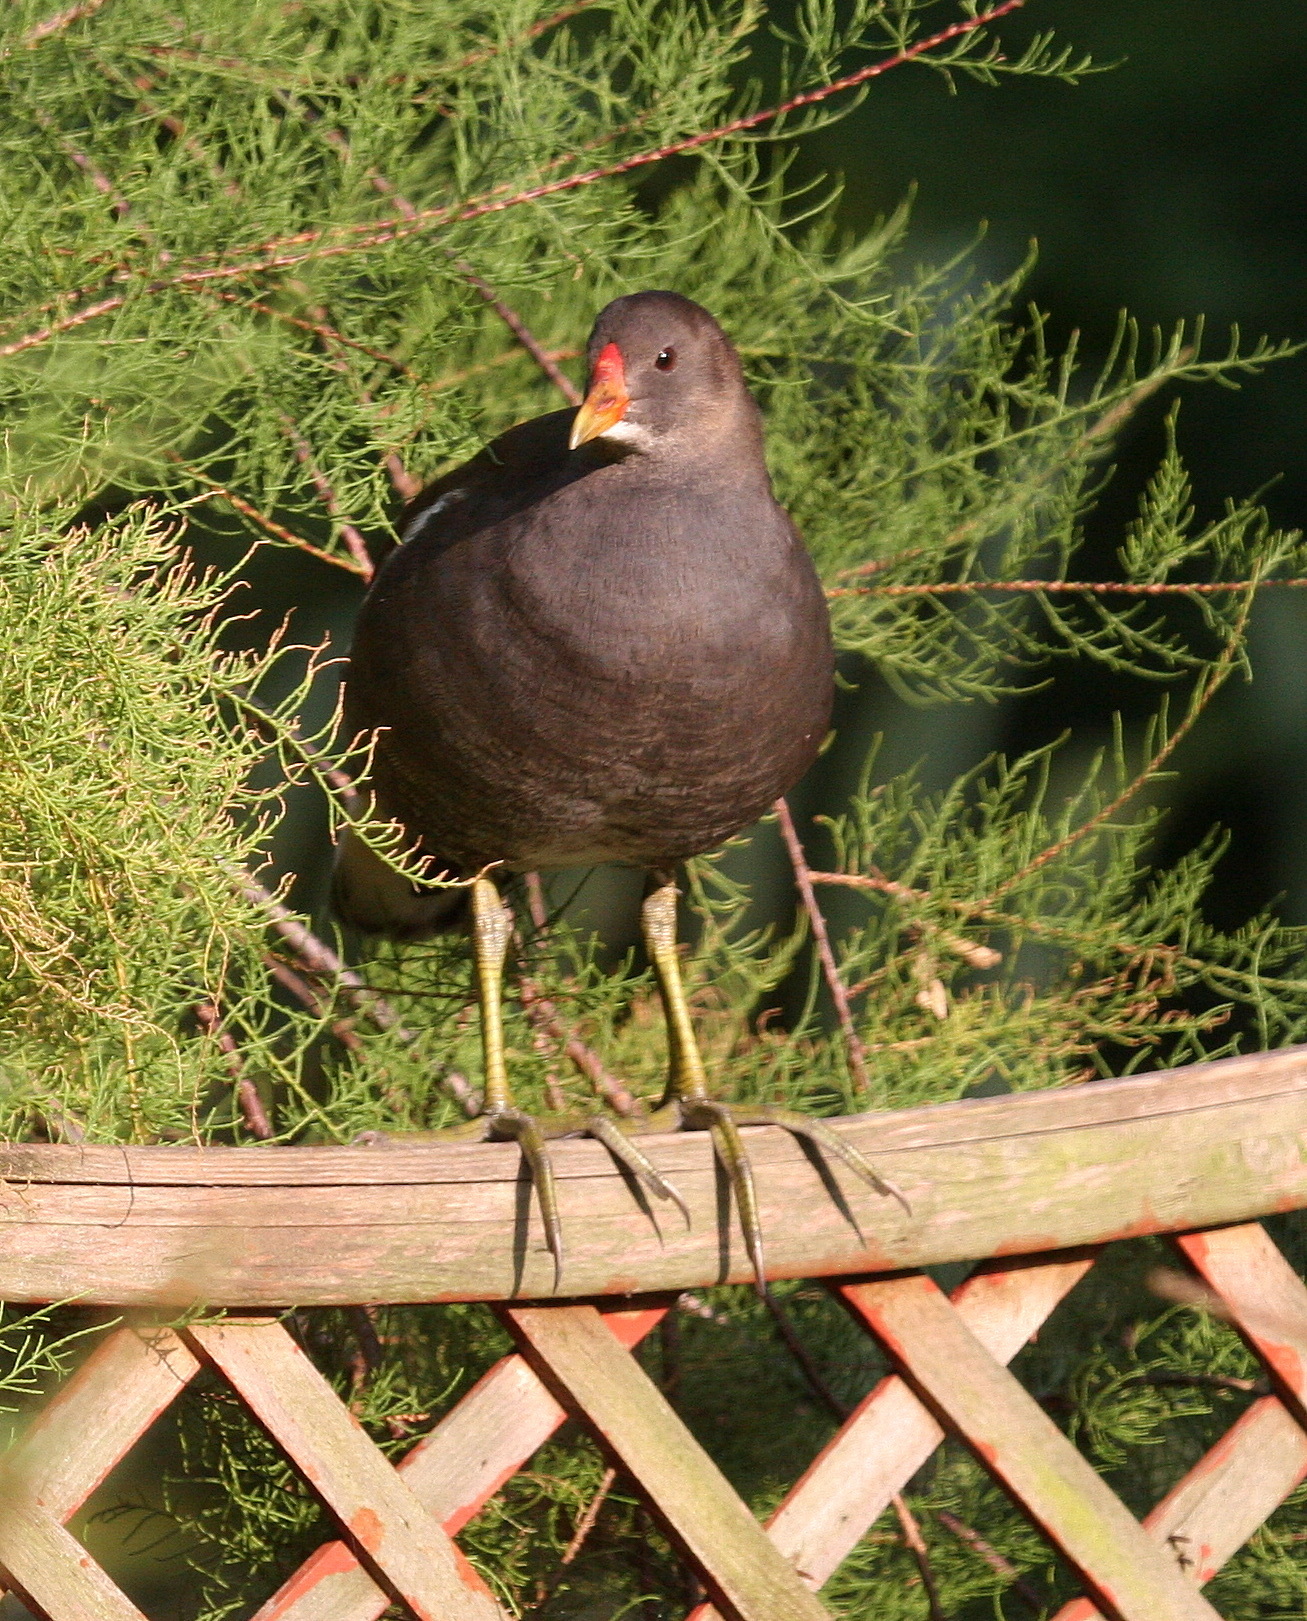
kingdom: Animalia
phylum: Chordata
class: Aves
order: Gruiformes
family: Rallidae
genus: Gallinula
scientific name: Gallinula chloropus
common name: Common moorhen
